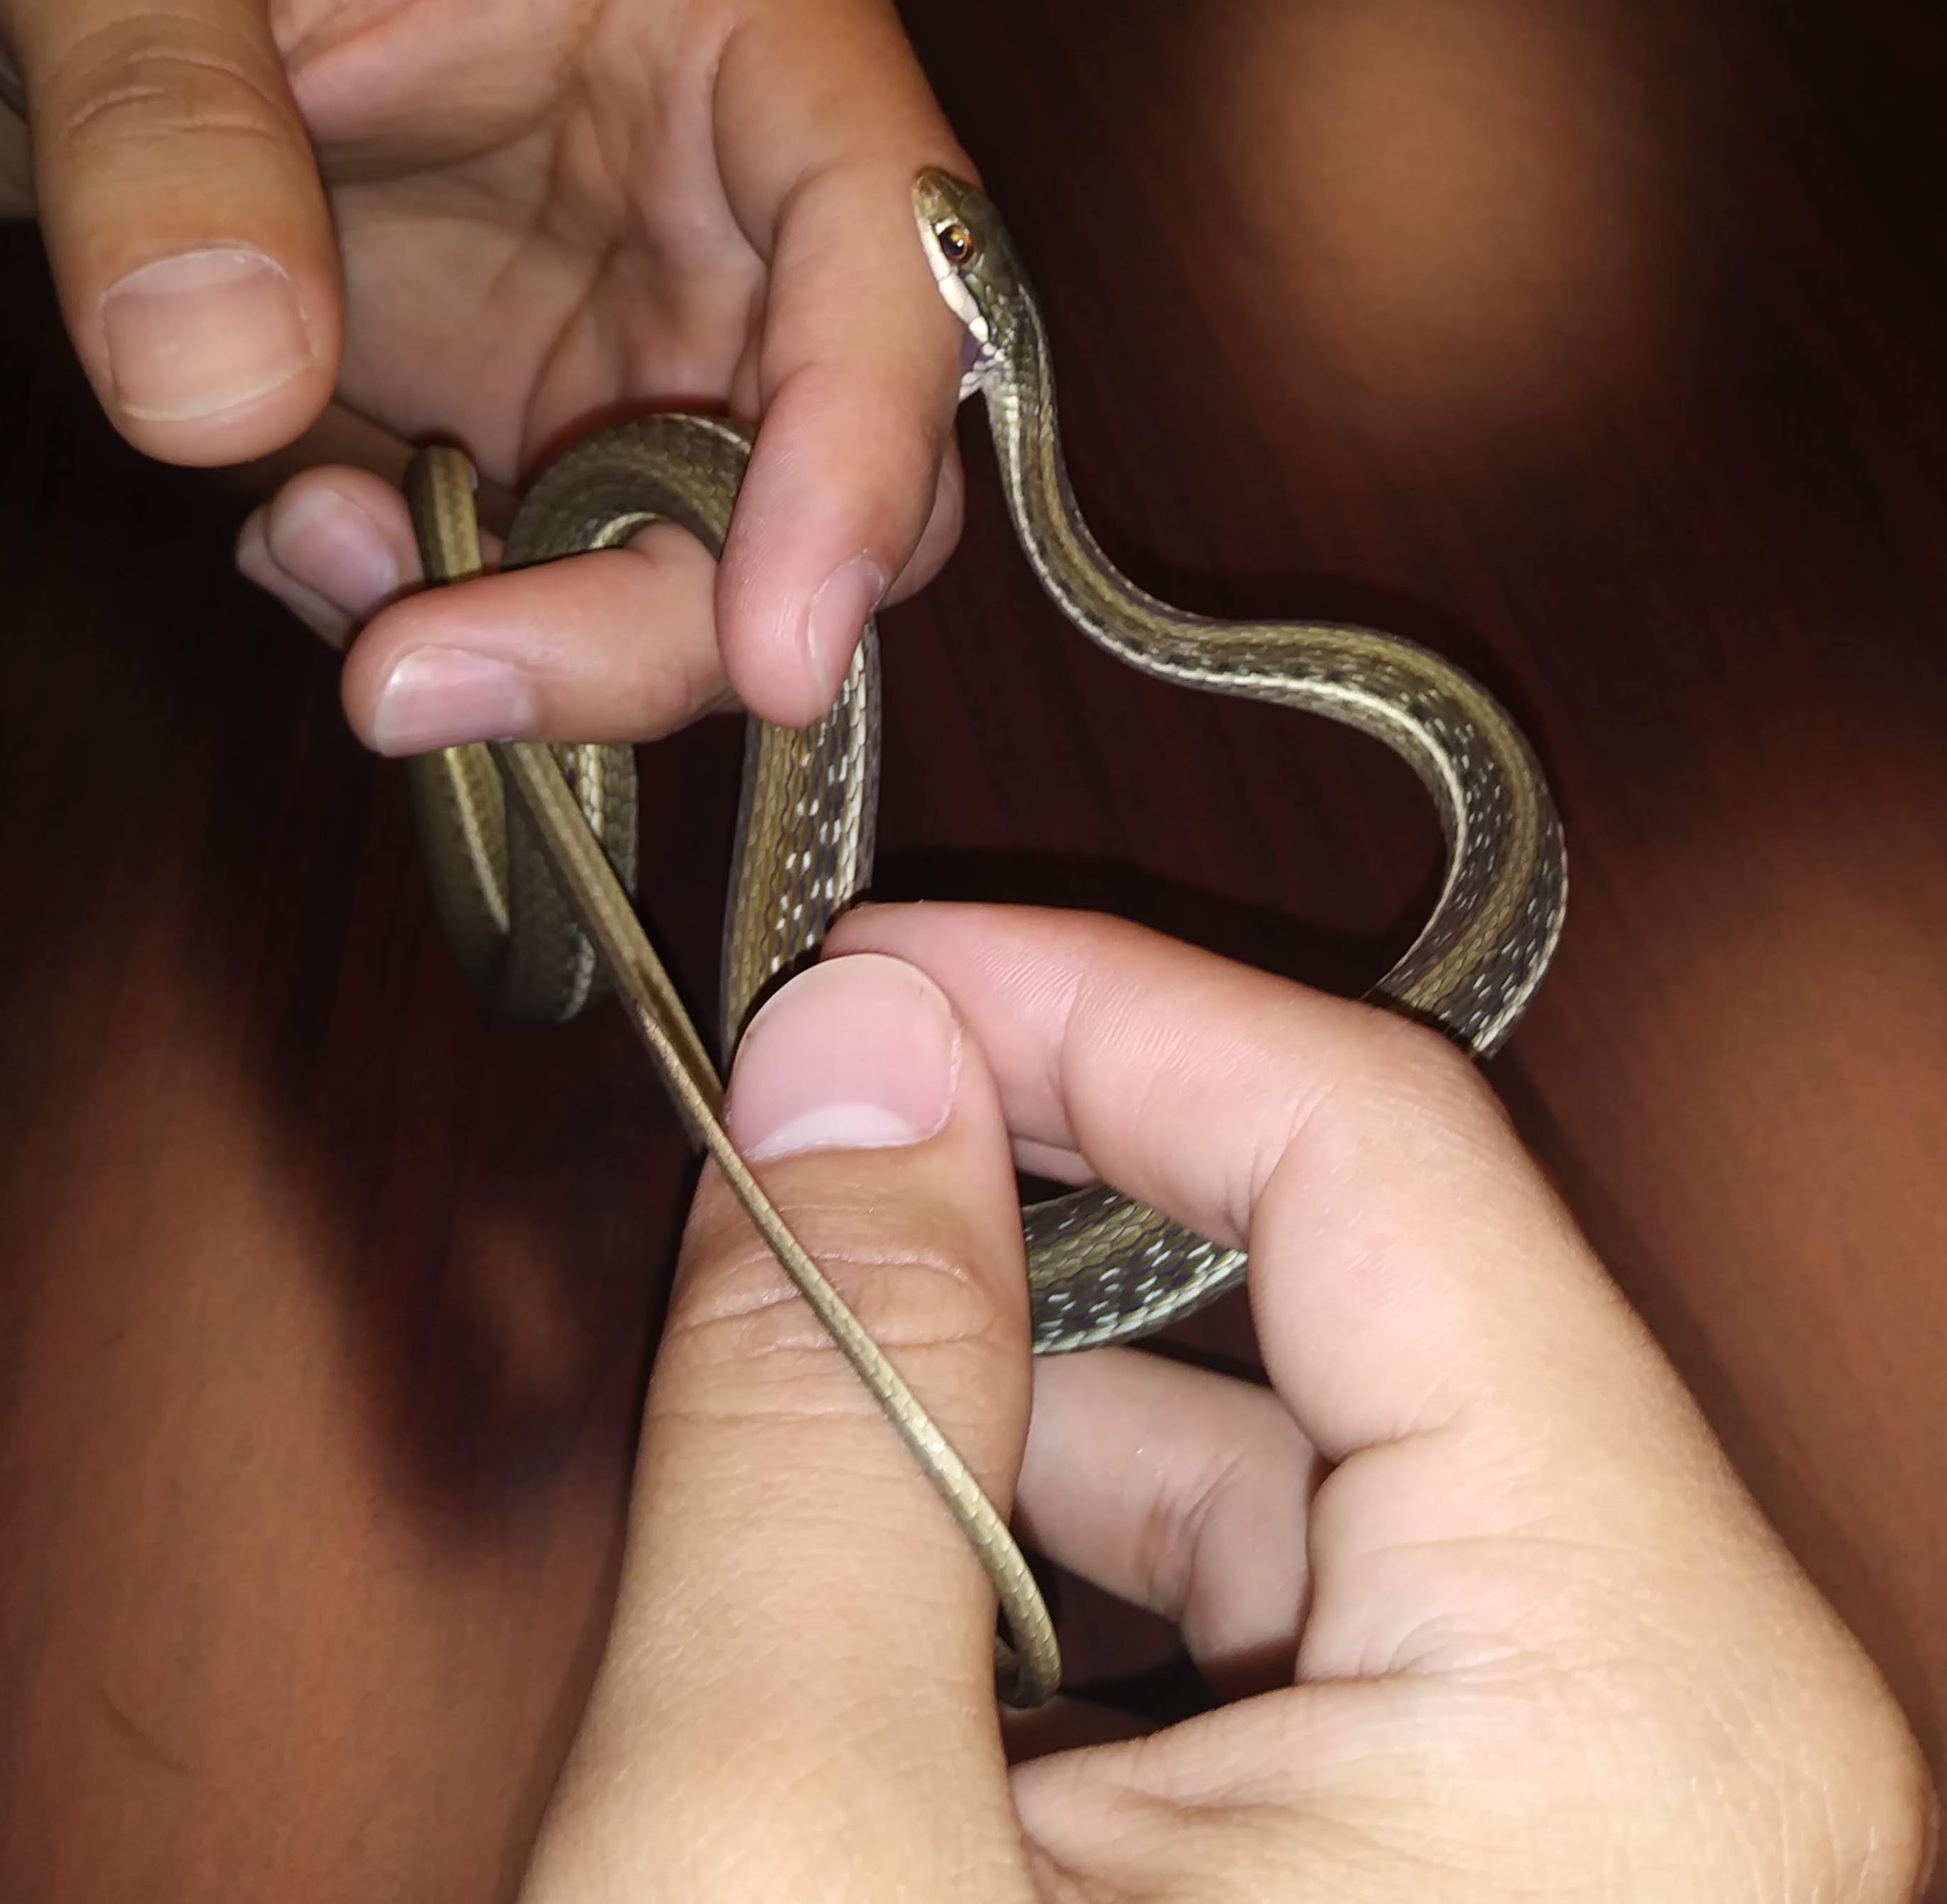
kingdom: Animalia
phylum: Chordata
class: Squamata
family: Colubridae
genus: Thamnophis
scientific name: Thamnophis saurita
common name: Eastern ribbonsnake
